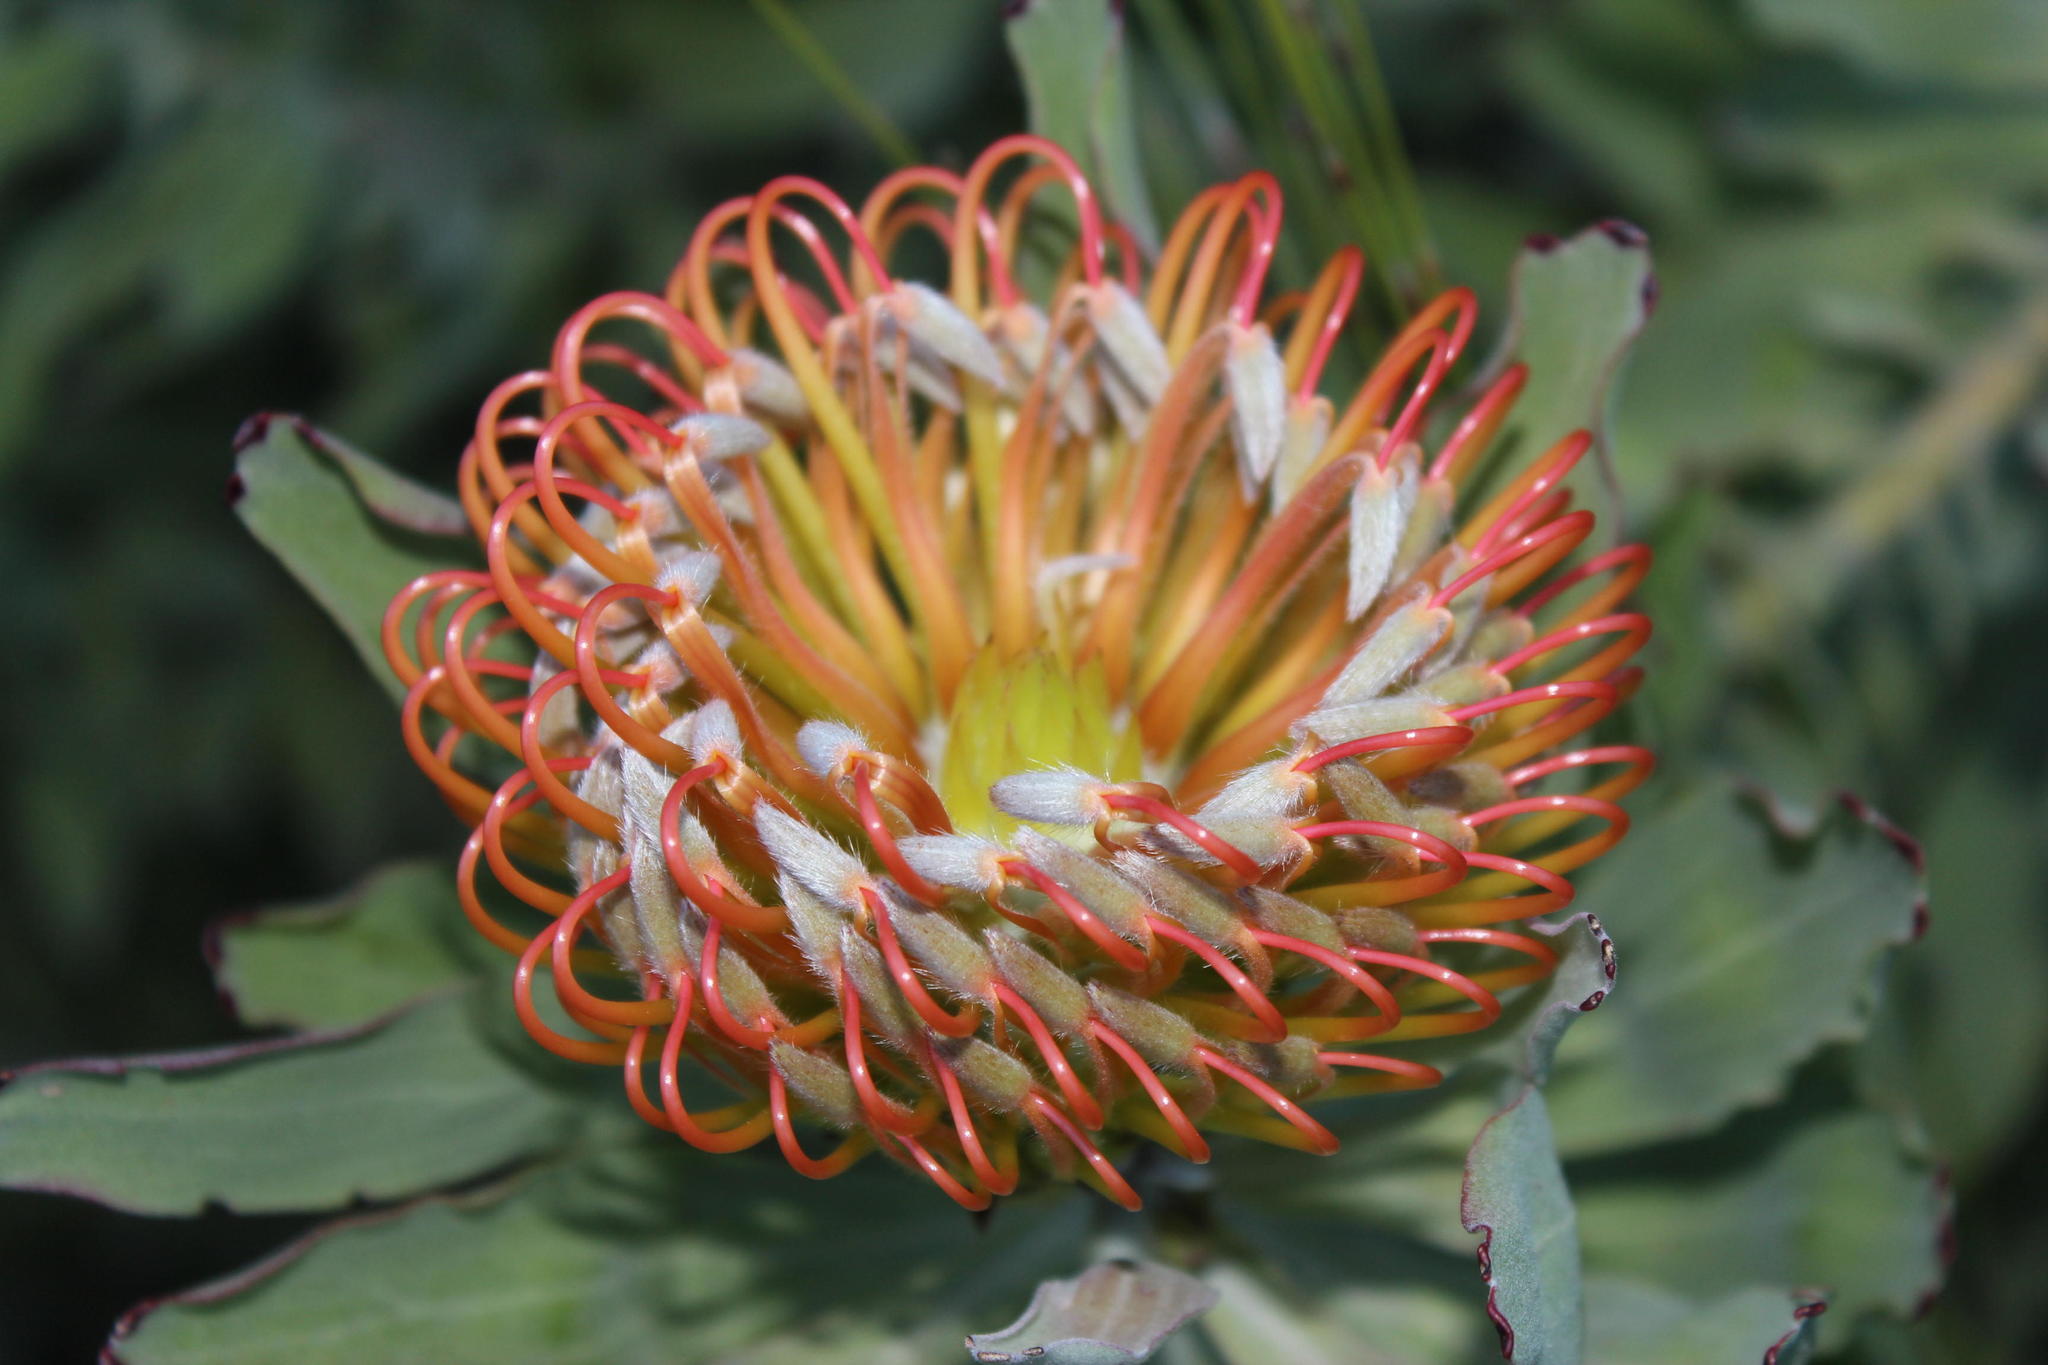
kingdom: Plantae
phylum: Tracheophyta
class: Magnoliopsida
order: Proteales
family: Proteaceae
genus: Leucospermum
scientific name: Leucospermum catherinae
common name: Catherine-wheel pincushion
